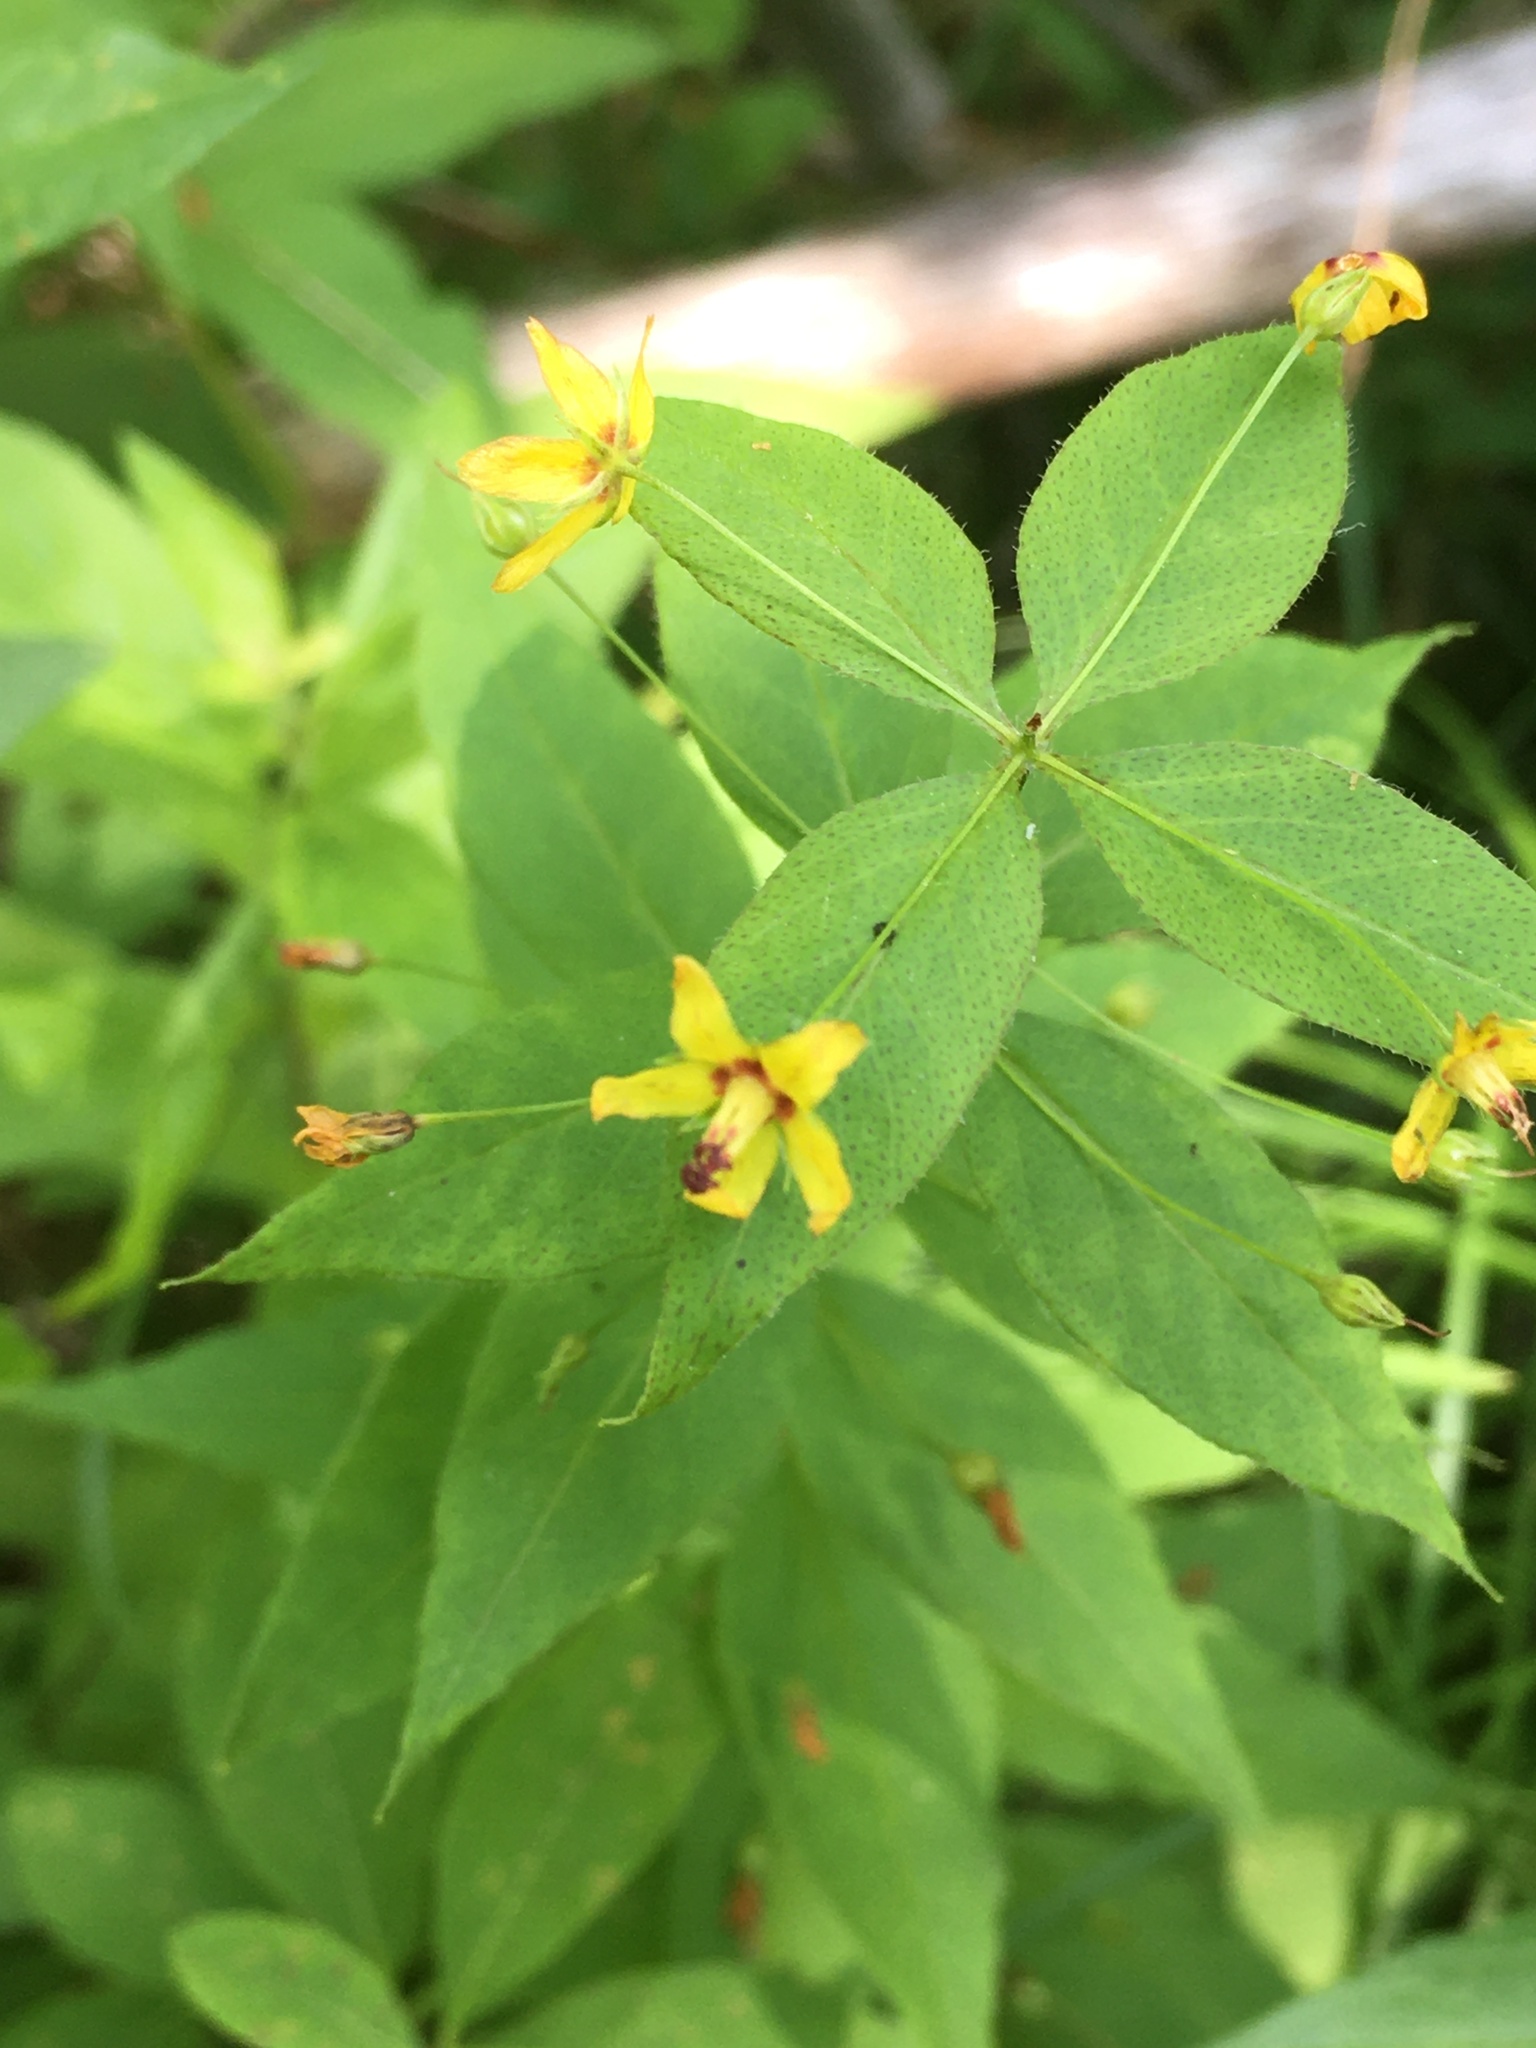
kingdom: Plantae
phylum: Tracheophyta
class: Magnoliopsida
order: Ericales
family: Primulaceae
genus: Lysimachia
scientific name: Lysimachia quadrifolia
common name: Whorled loosestrife
